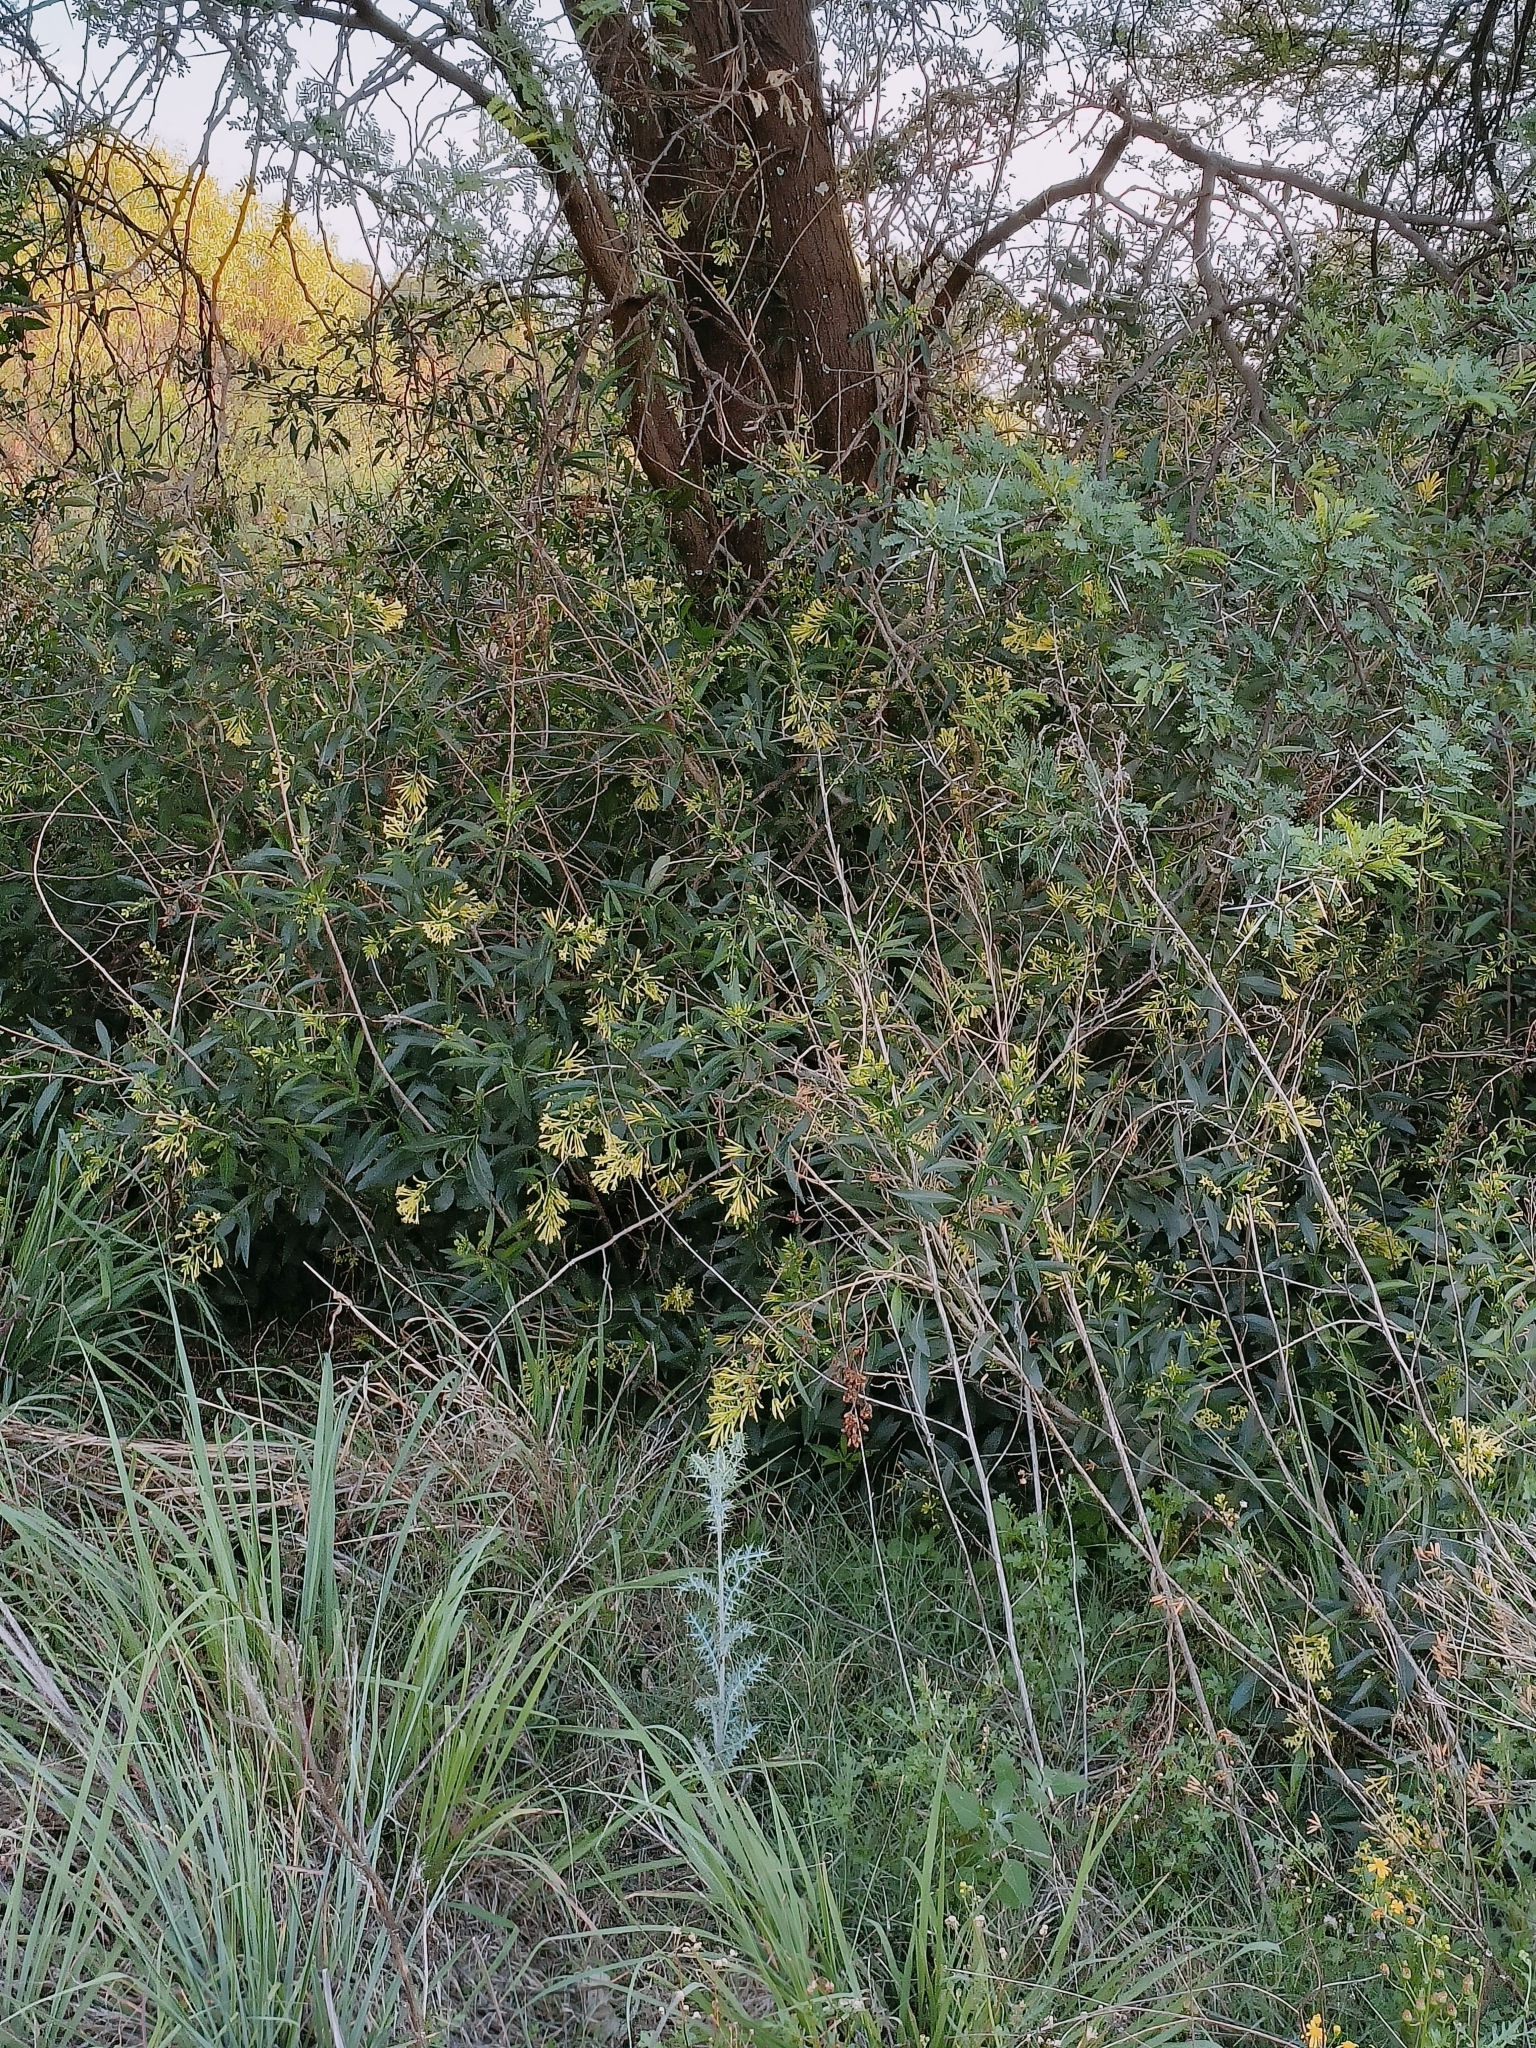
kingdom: Plantae
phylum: Tracheophyta
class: Magnoliopsida
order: Solanales
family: Solanaceae
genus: Cestrum
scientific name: Cestrum parqui
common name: Chilean cestrum
